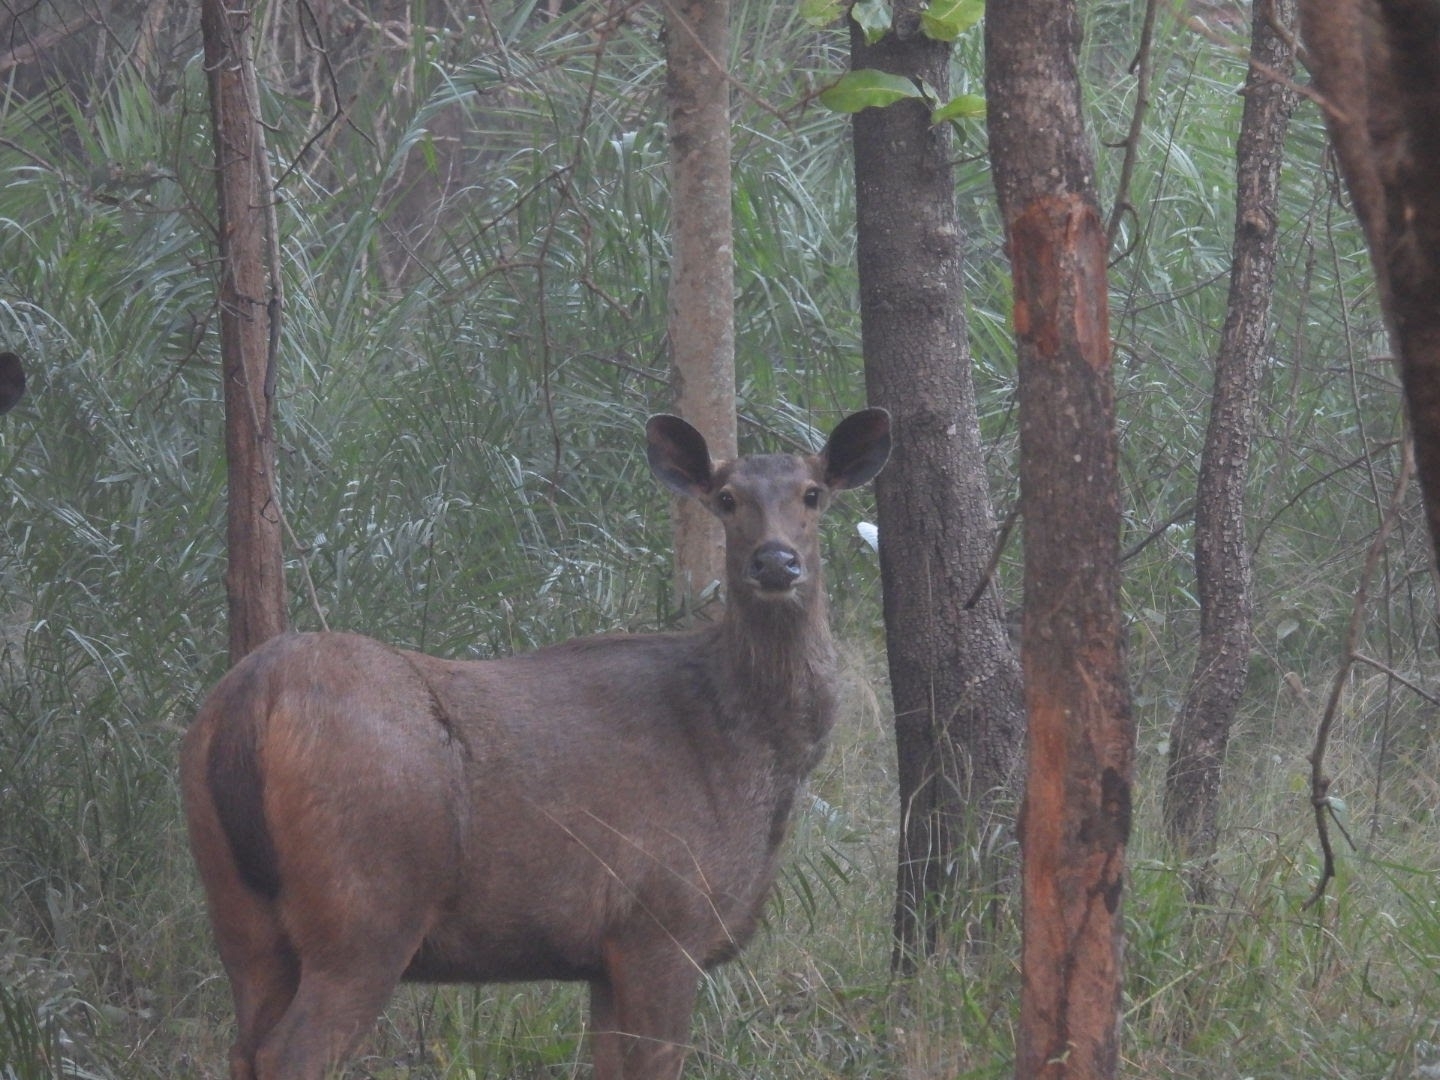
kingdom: Animalia
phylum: Chordata
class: Mammalia
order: Artiodactyla
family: Cervidae
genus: Rusa
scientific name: Rusa unicolor
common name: Sambar
